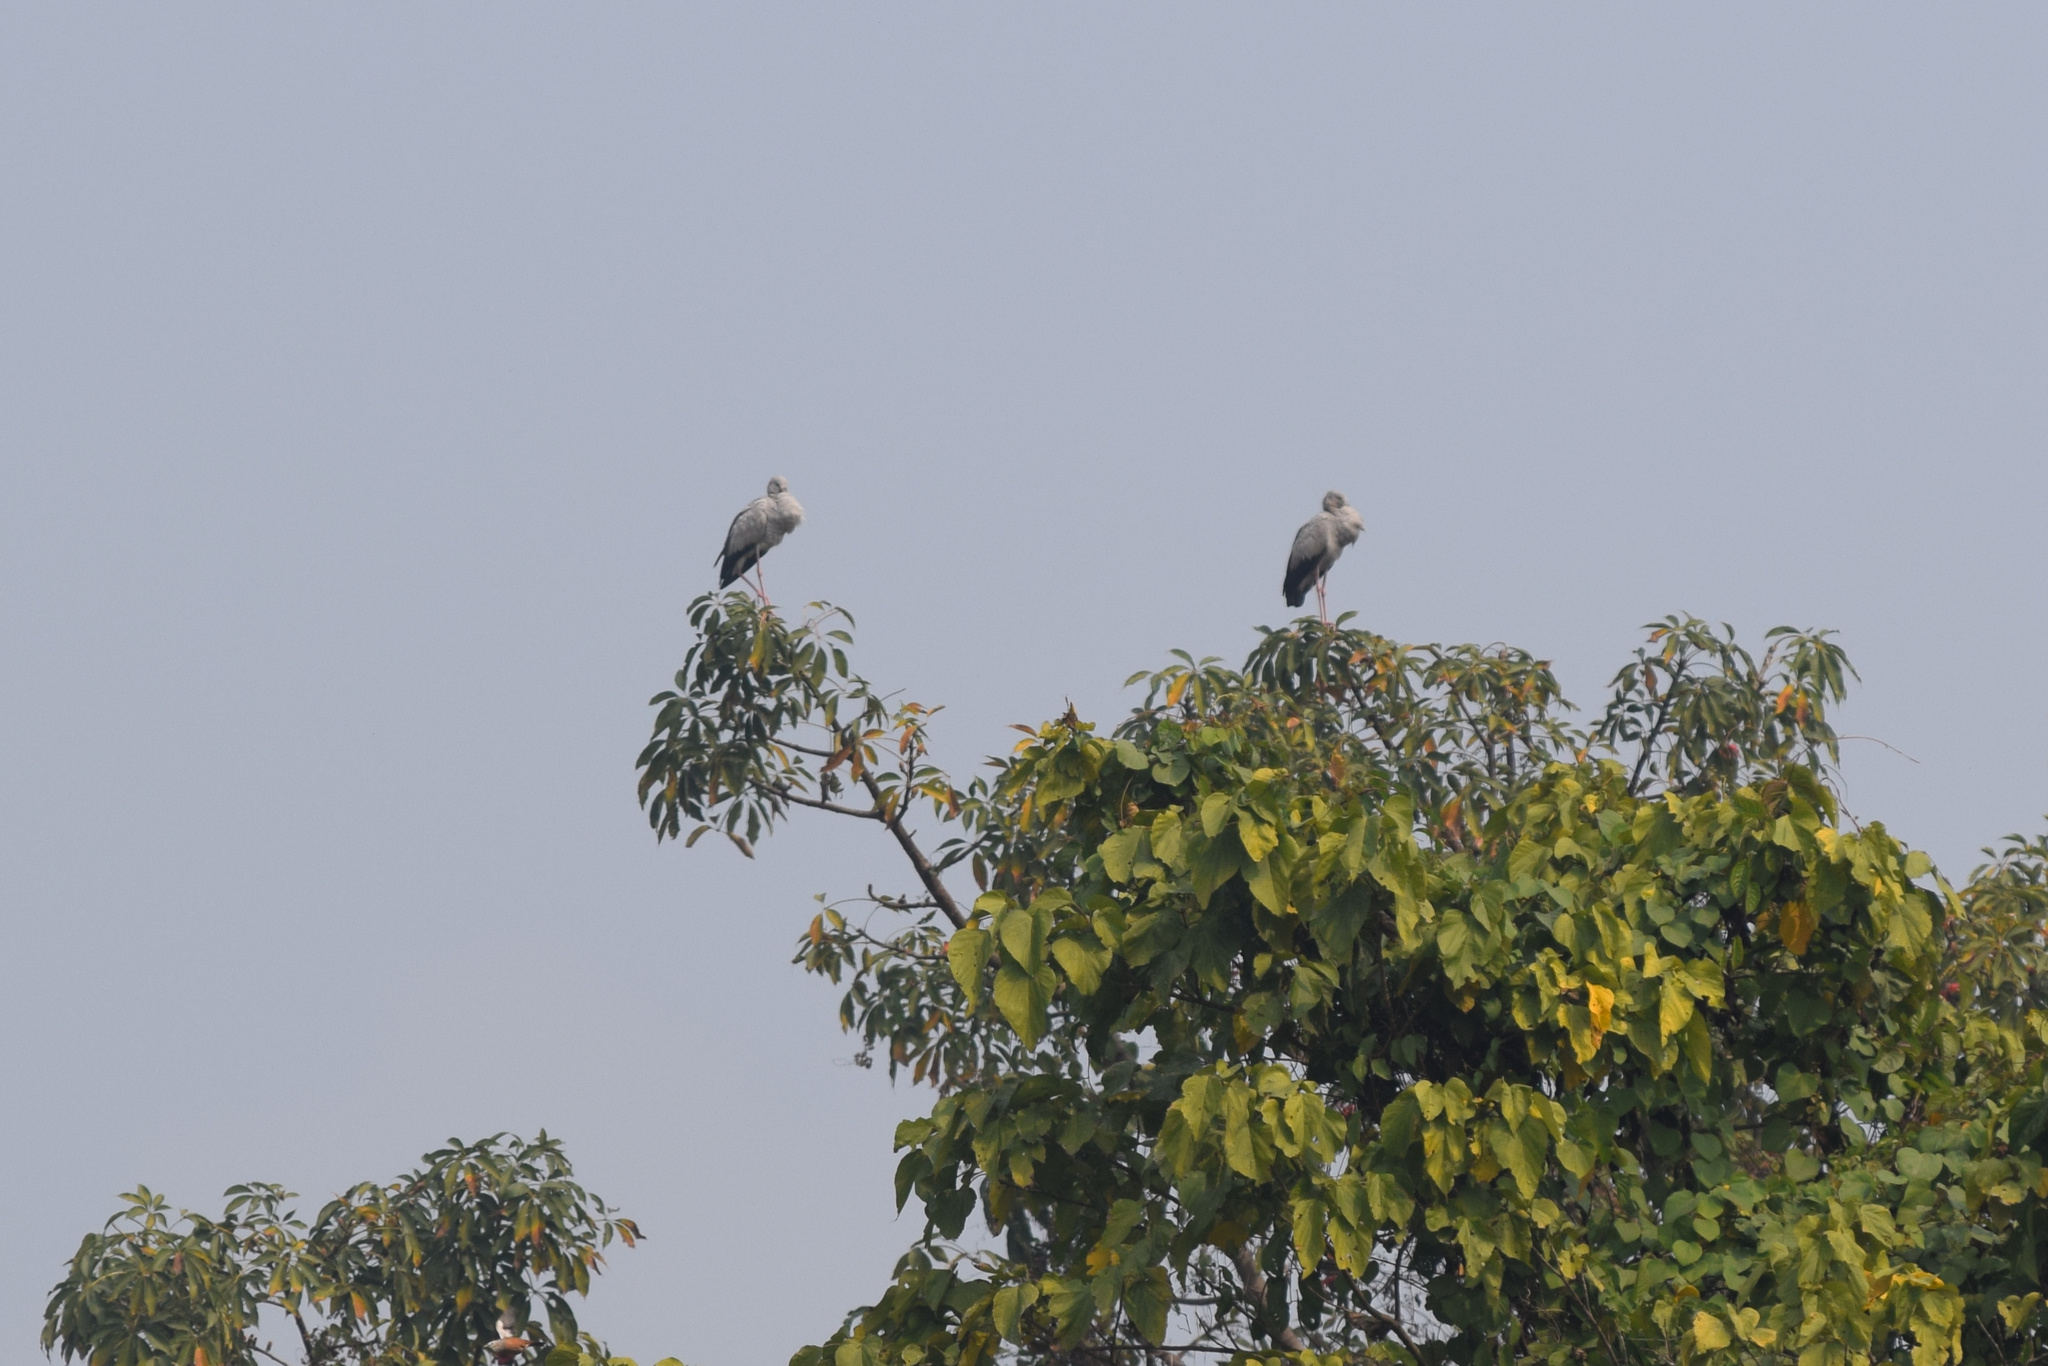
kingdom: Animalia
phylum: Chordata
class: Aves
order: Ciconiiformes
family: Ciconiidae
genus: Anastomus
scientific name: Anastomus oscitans
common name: Asian openbill
